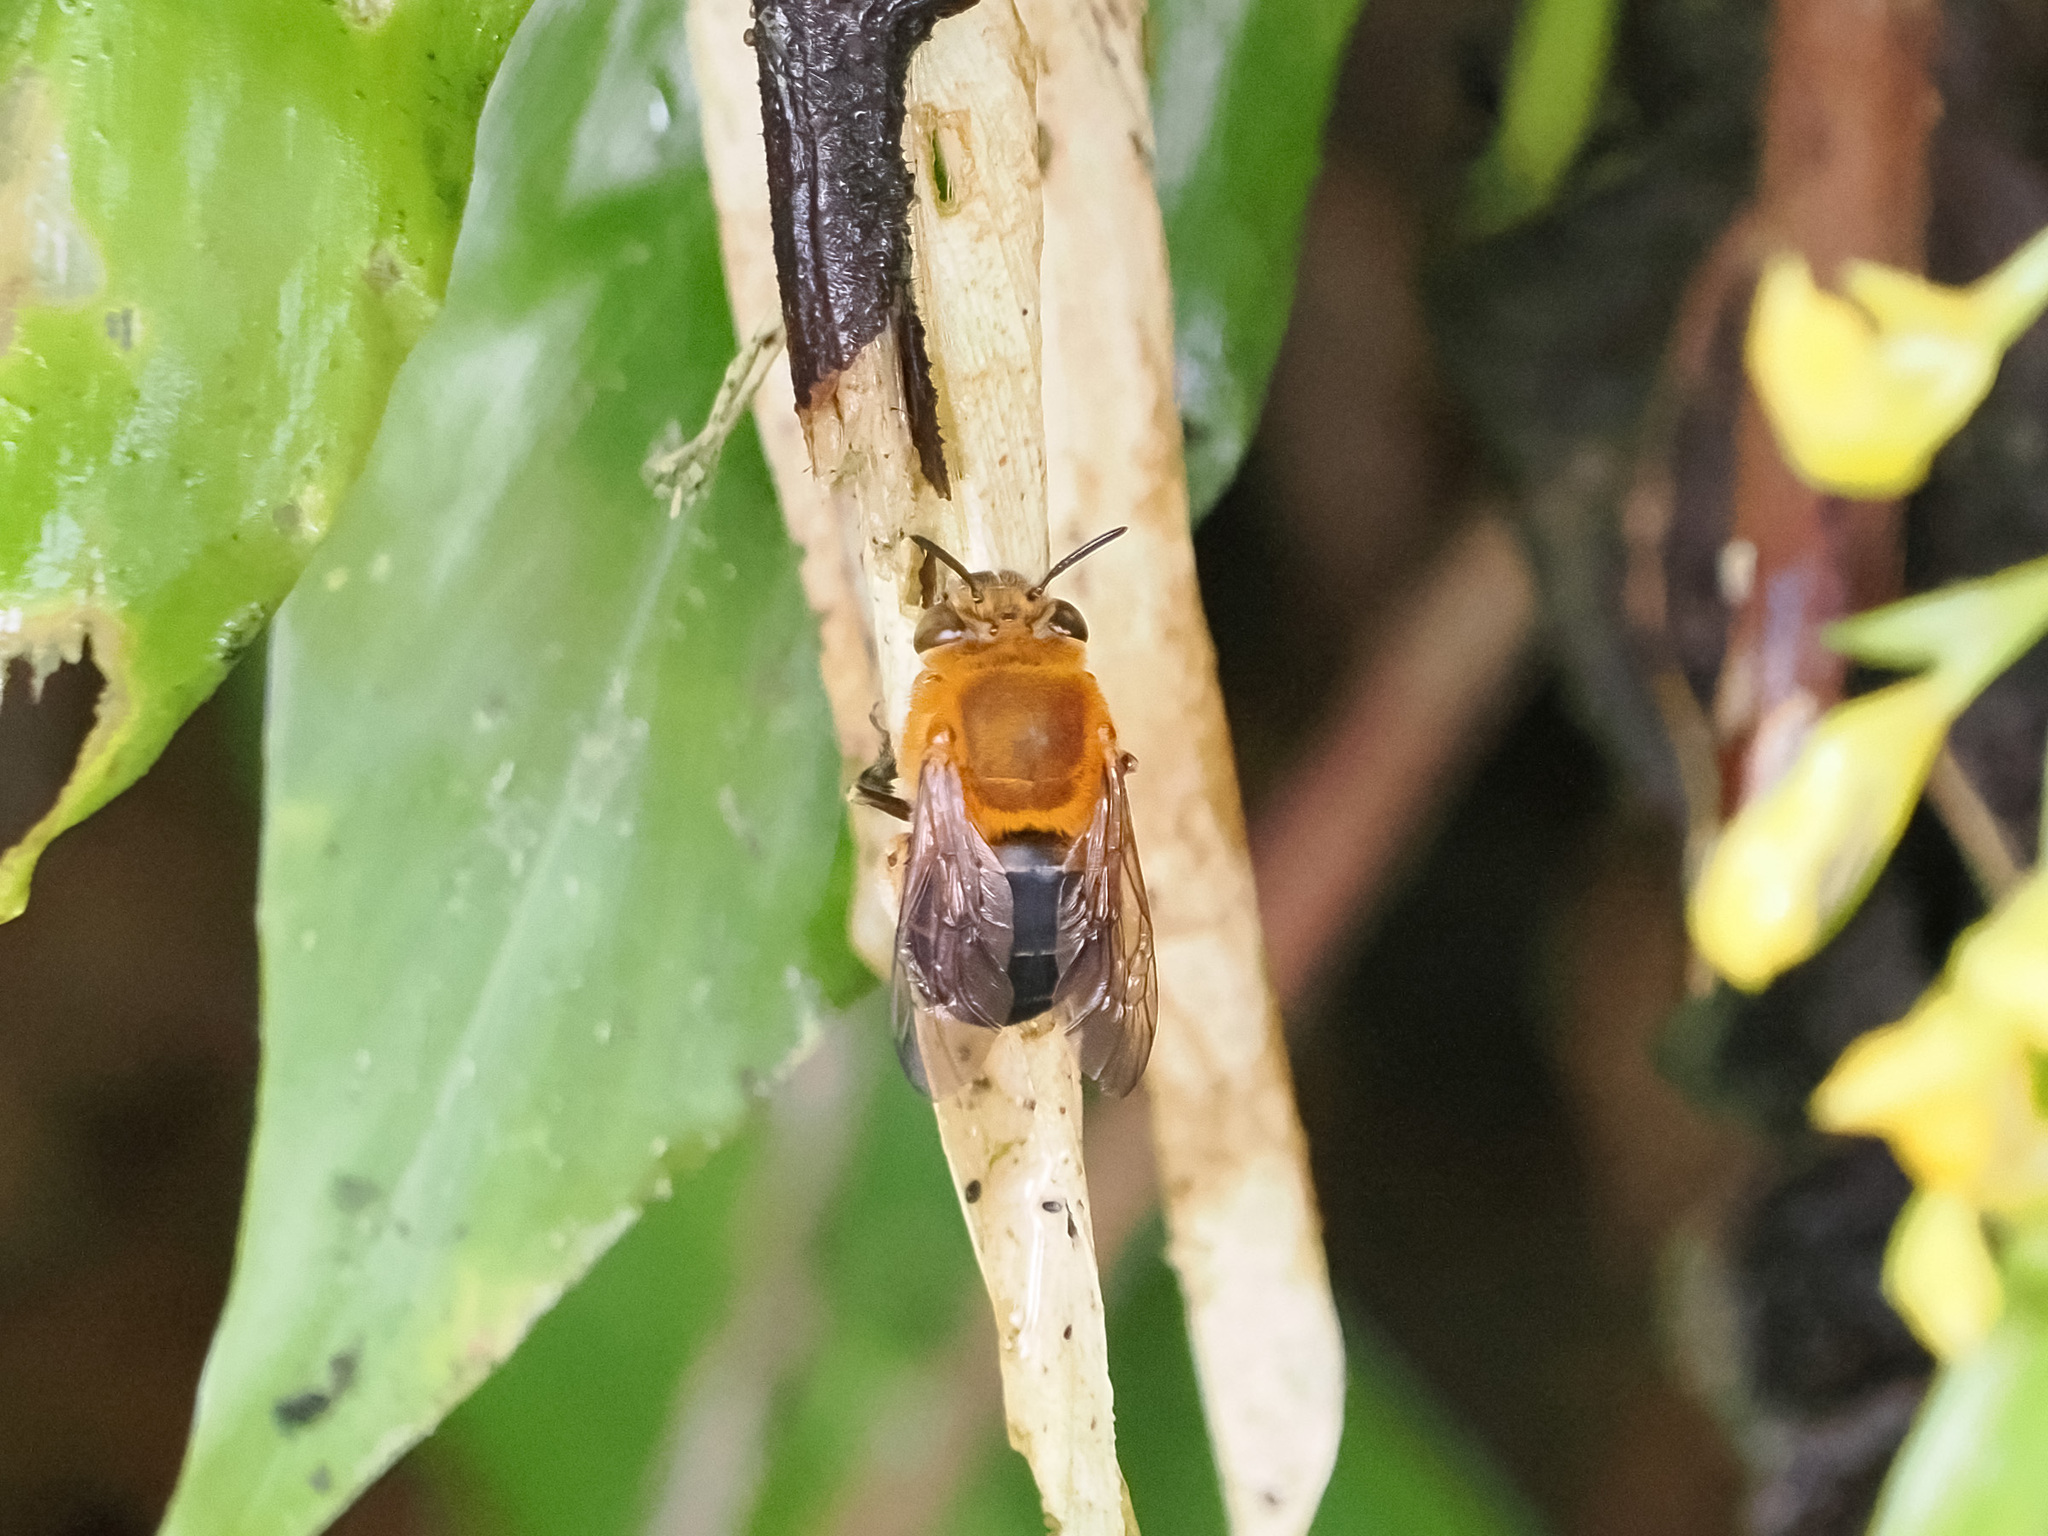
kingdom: Animalia
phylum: Arthropoda
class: Insecta
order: Hymenoptera
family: Apidae
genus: Amegilla
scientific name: Amegilla malaccensis
